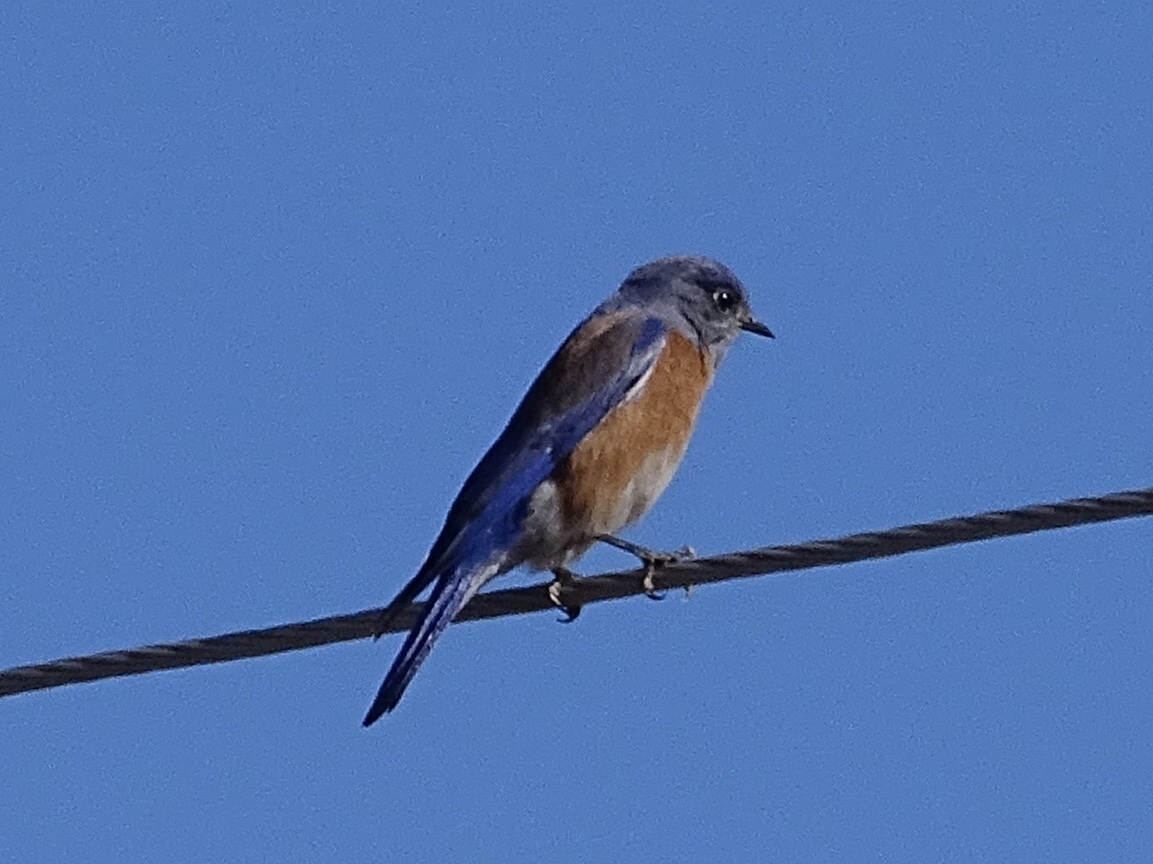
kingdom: Animalia
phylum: Chordata
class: Aves
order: Passeriformes
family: Turdidae
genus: Sialia
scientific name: Sialia mexicana
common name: Western bluebird
